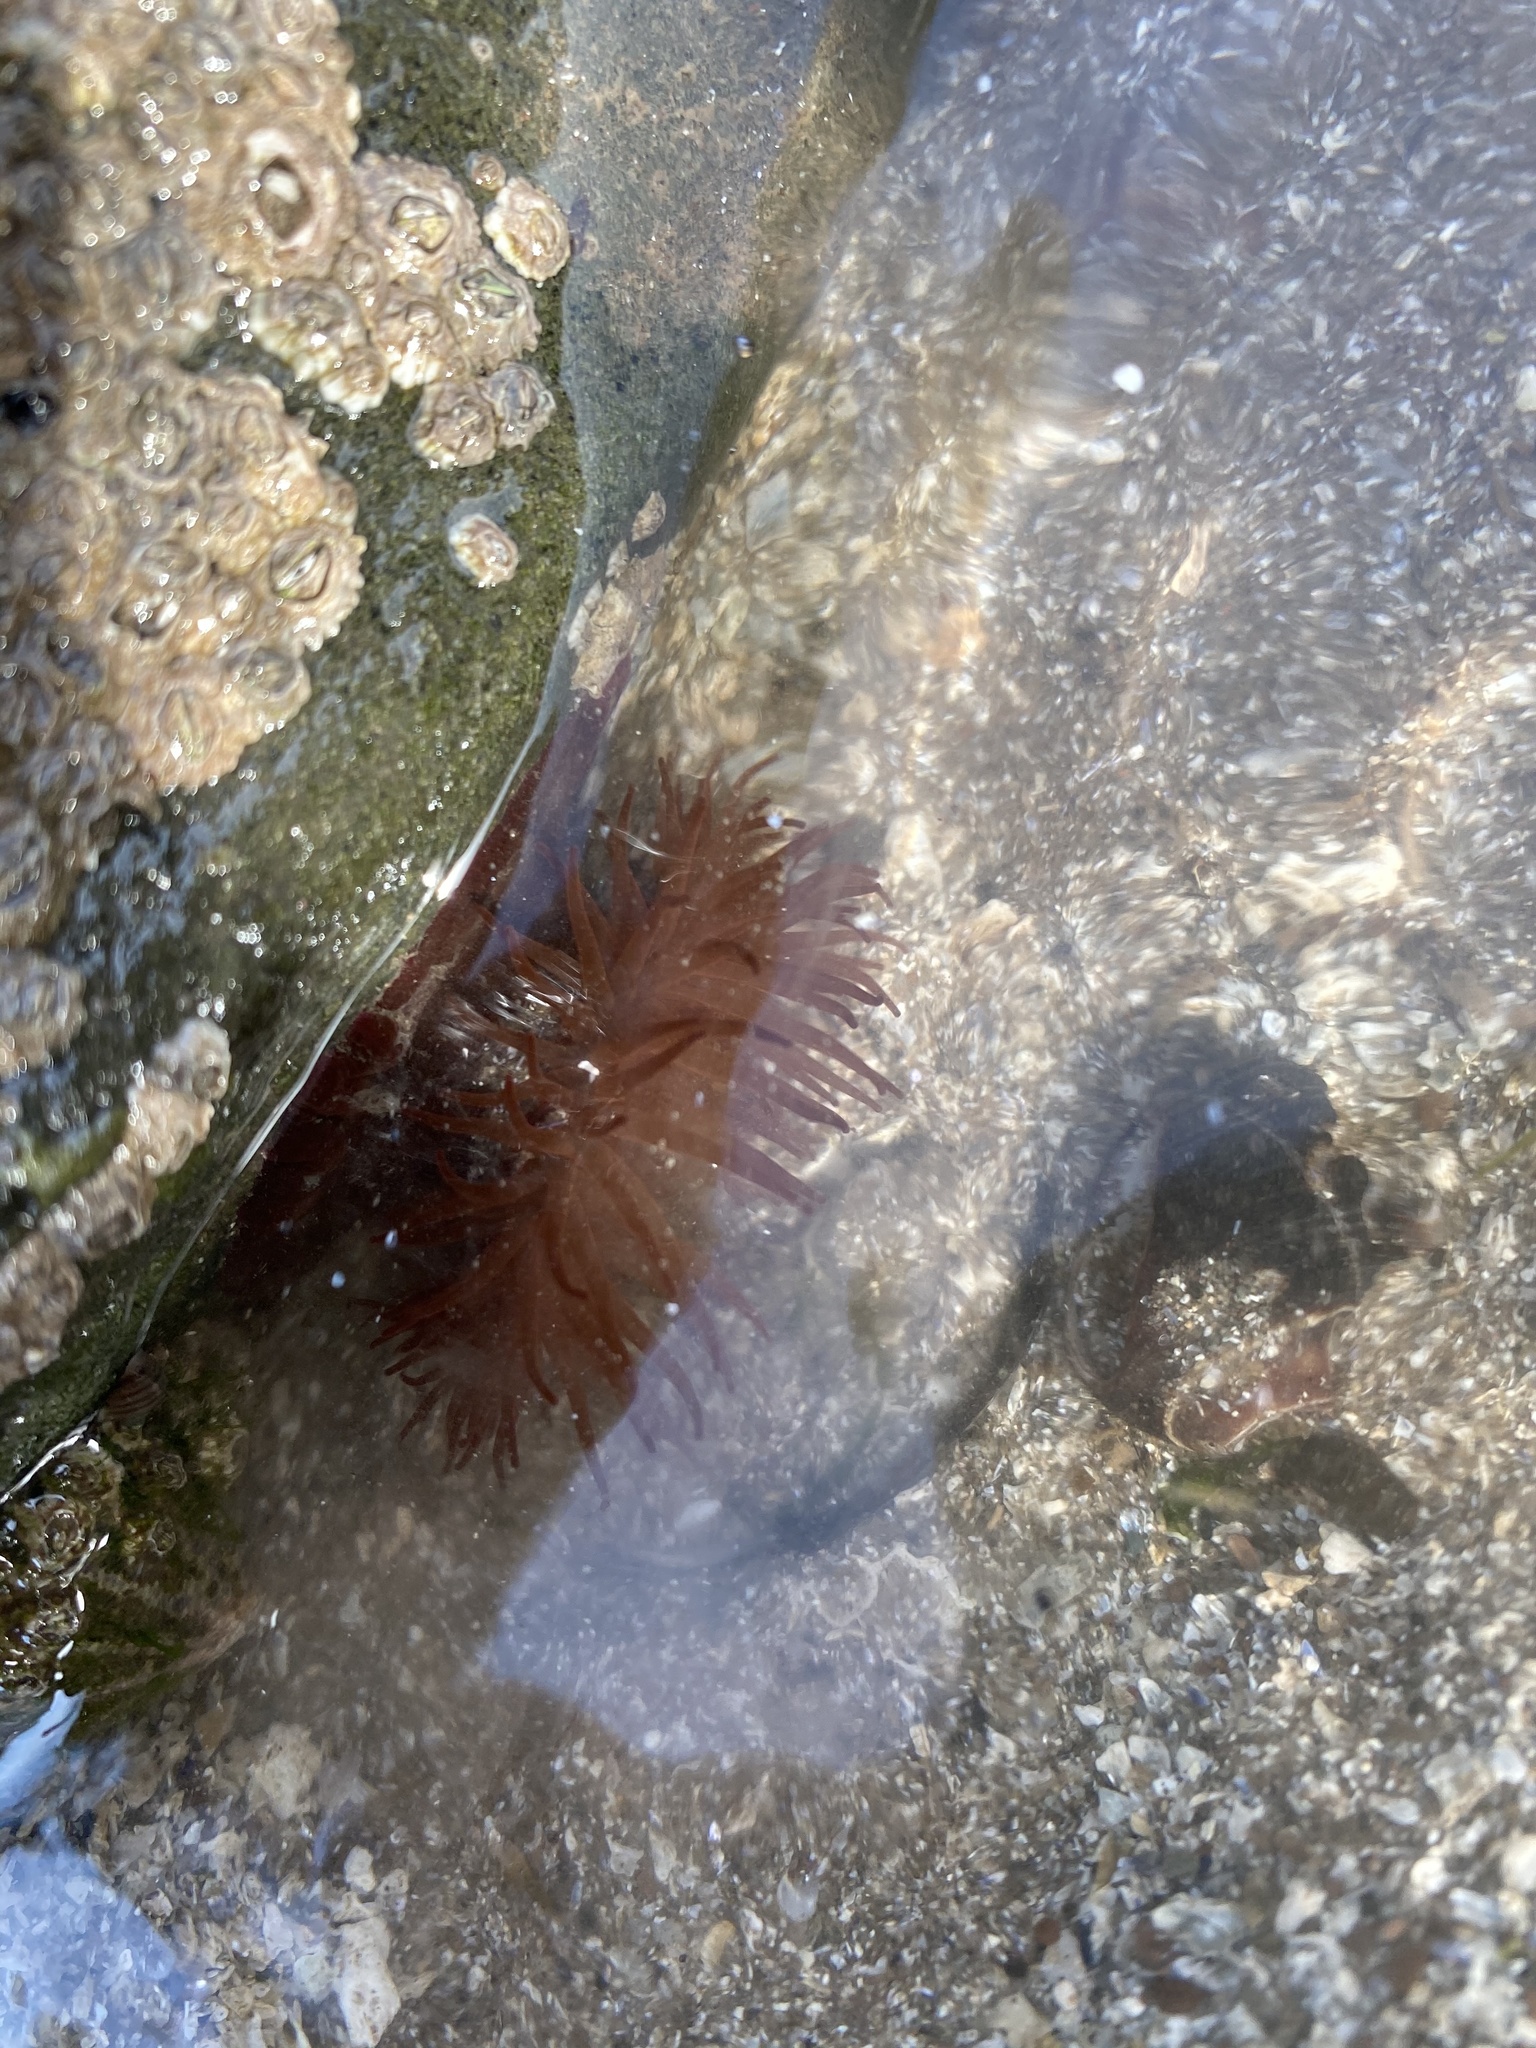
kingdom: Animalia
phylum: Cnidaria
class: Anthozoa
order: Actiniaria
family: Actiniidae
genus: Actinia
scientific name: Actinia equina
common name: Beadlet anemone
